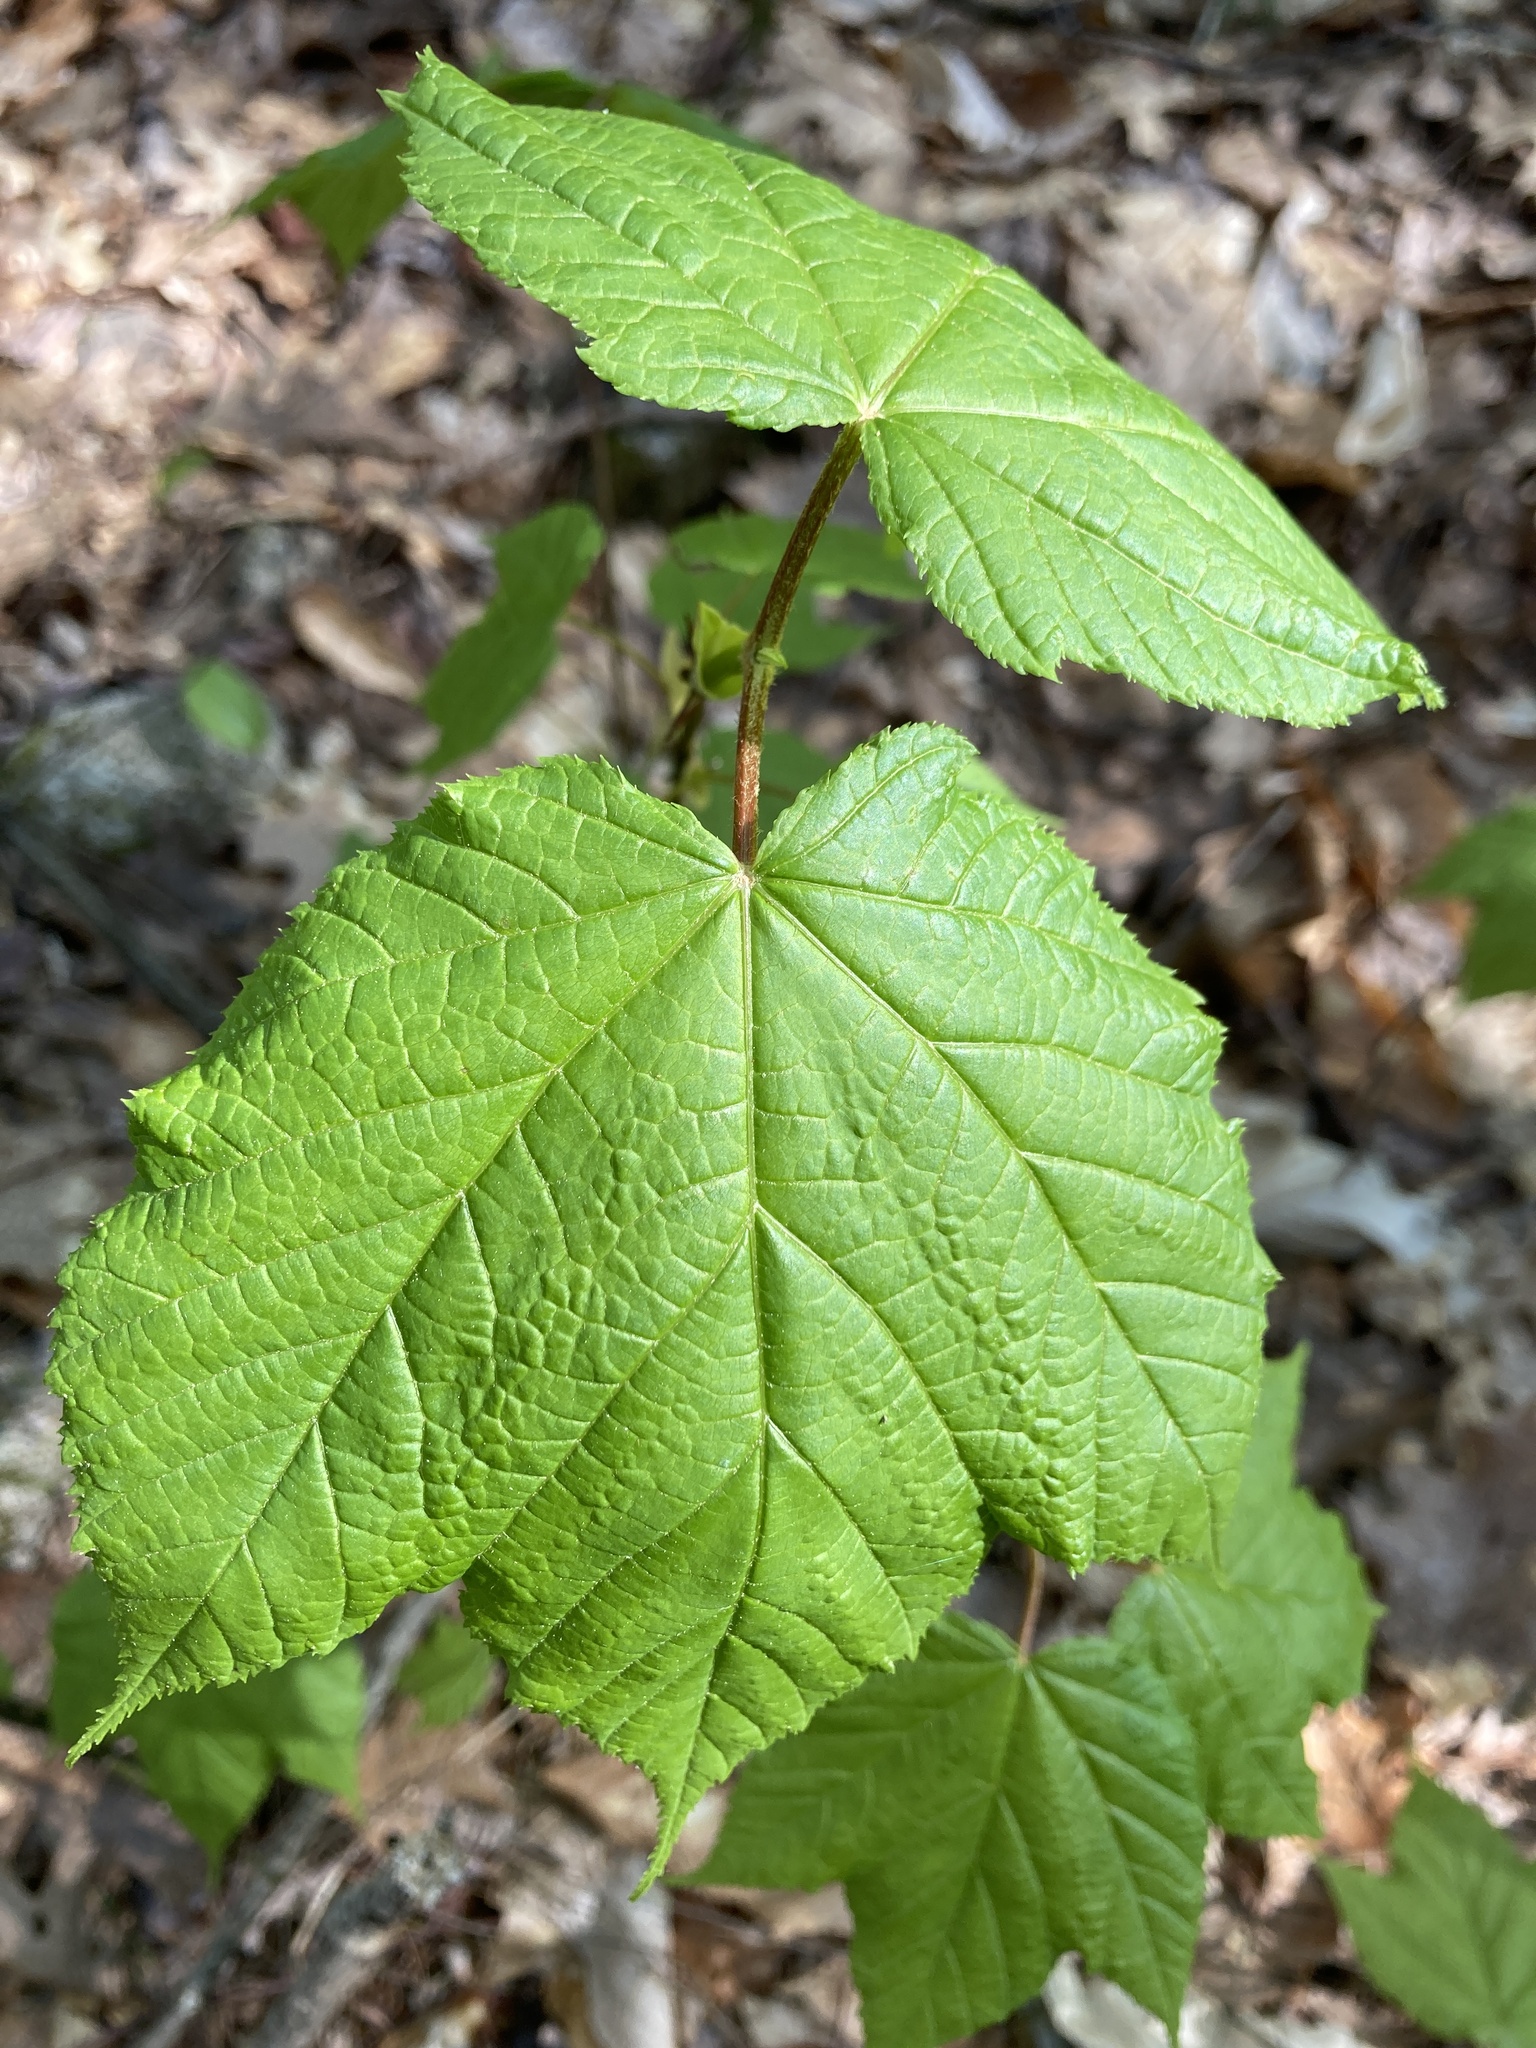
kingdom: Plantae
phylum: Tracheophyta
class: Magnoliopsida
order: Sapindales
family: Sapindaceae
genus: Acer
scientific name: Acer pensylvanicum
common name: Moosewood
